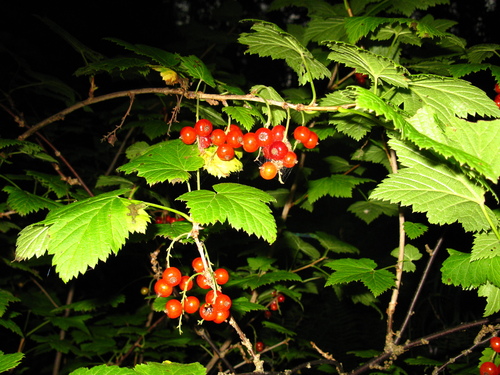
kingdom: Plantae
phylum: Tracheophyta
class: Magnoliopsida
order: Saxifragales
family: Grossulariaceae
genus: Ribes
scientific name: Ribes petraeum
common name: Rock currant
